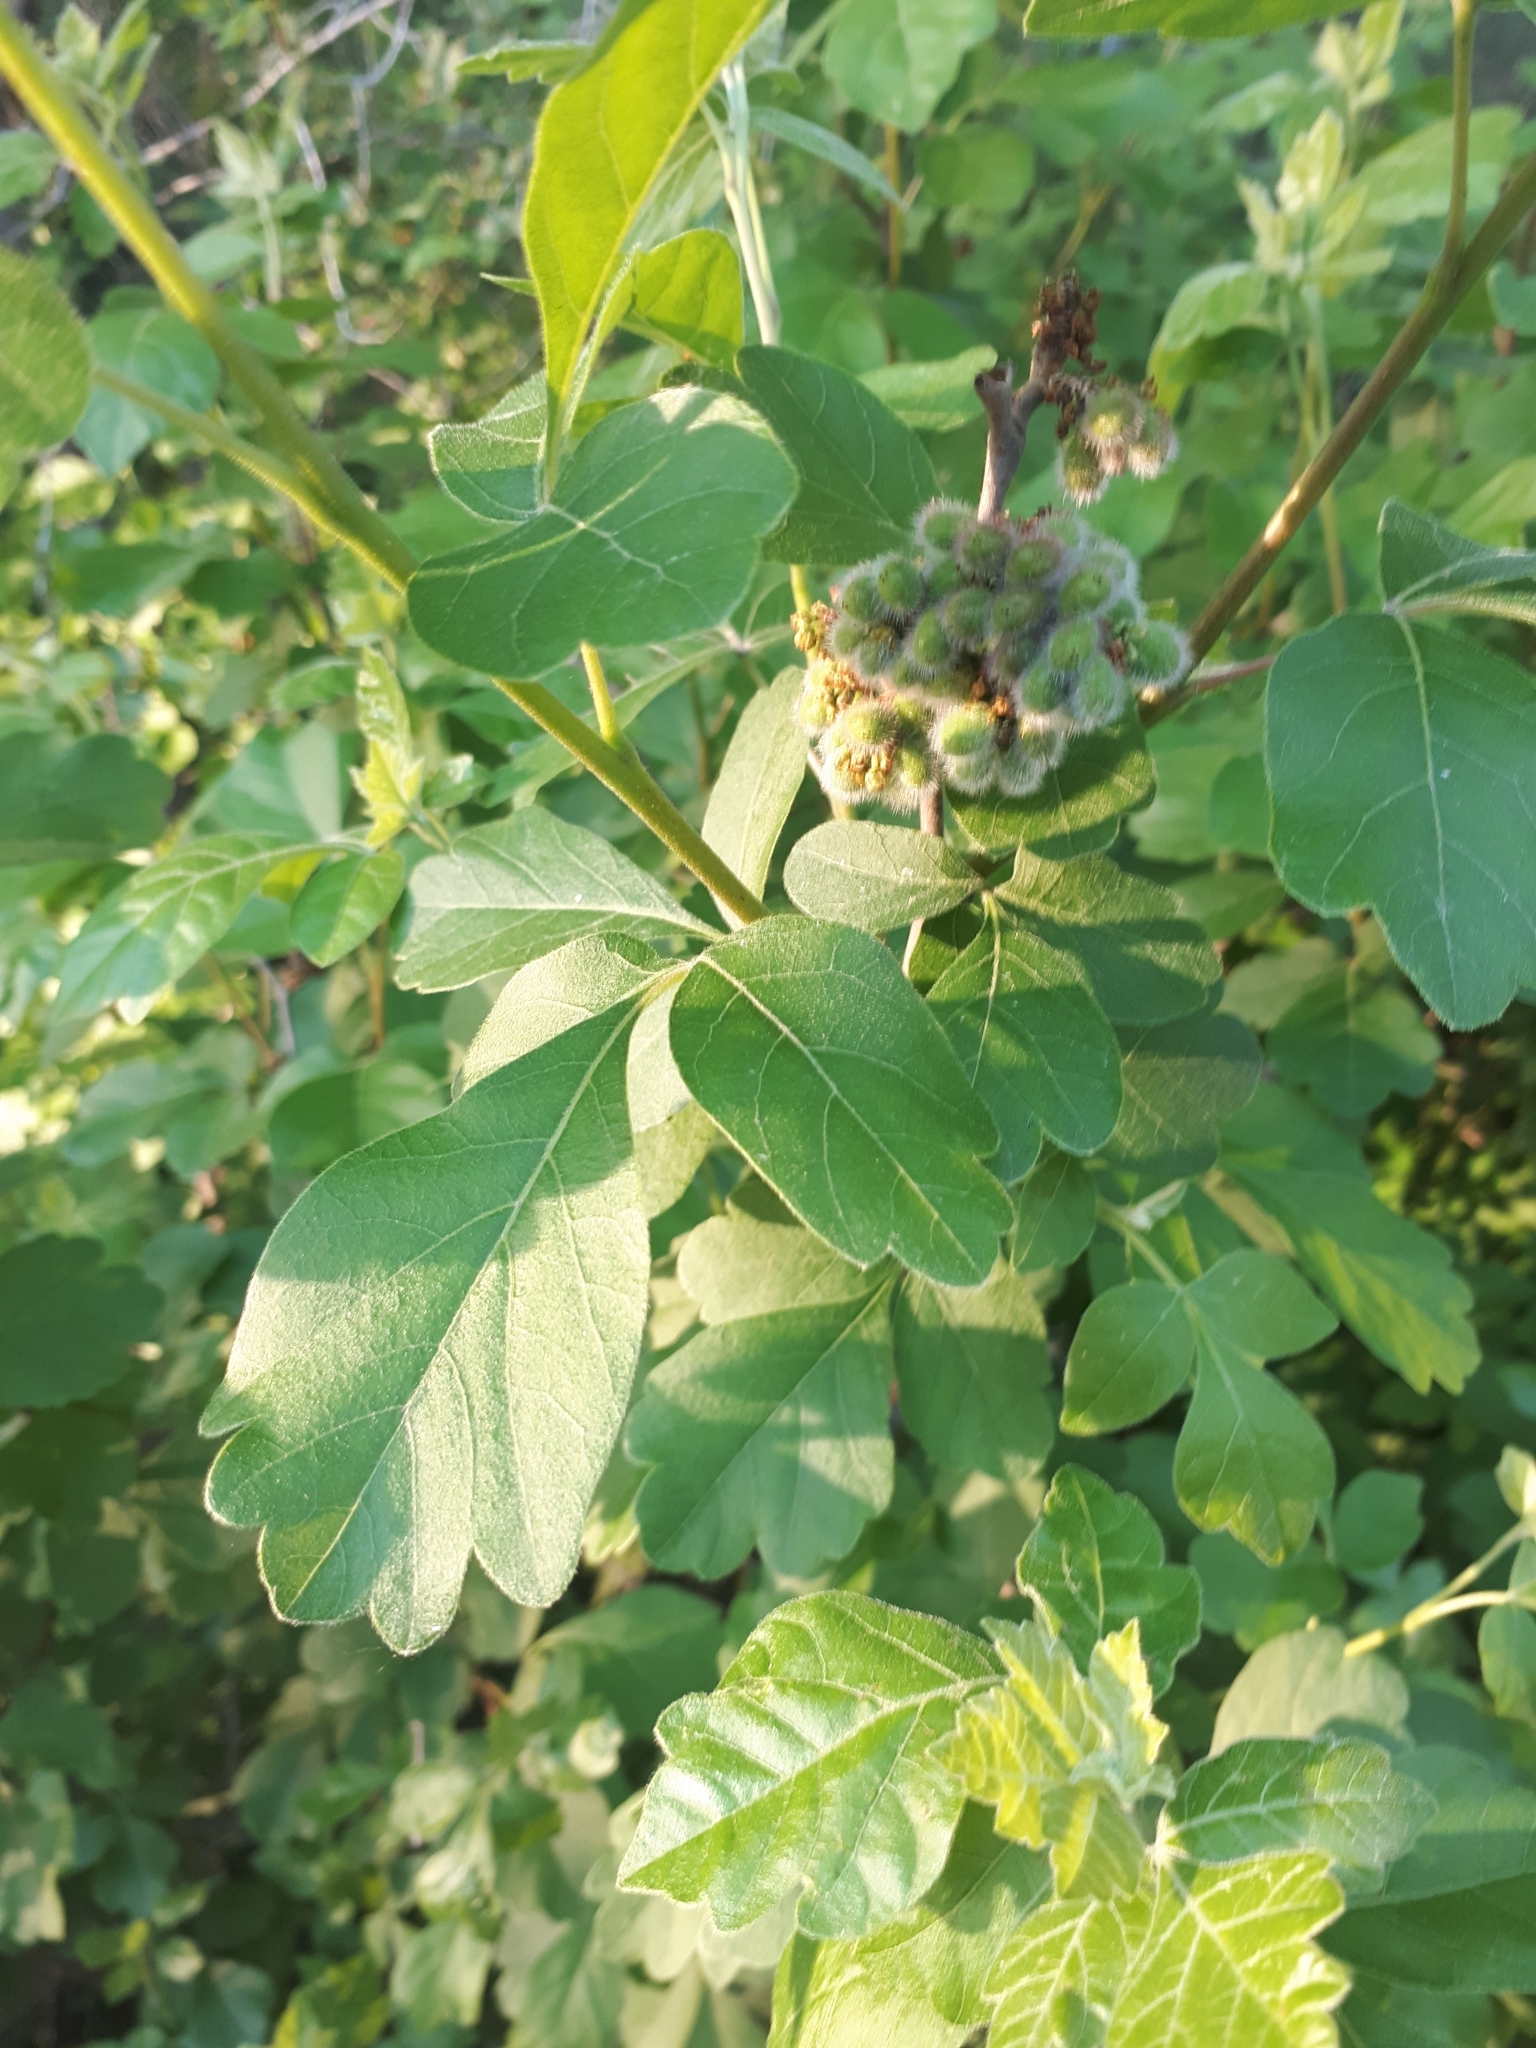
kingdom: Plantae
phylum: Tracheophyta
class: Magnoliopsida
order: Sapindales
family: Anacardiaceae
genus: Rhus
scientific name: Rhus aromatica
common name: Aromatic sumac
